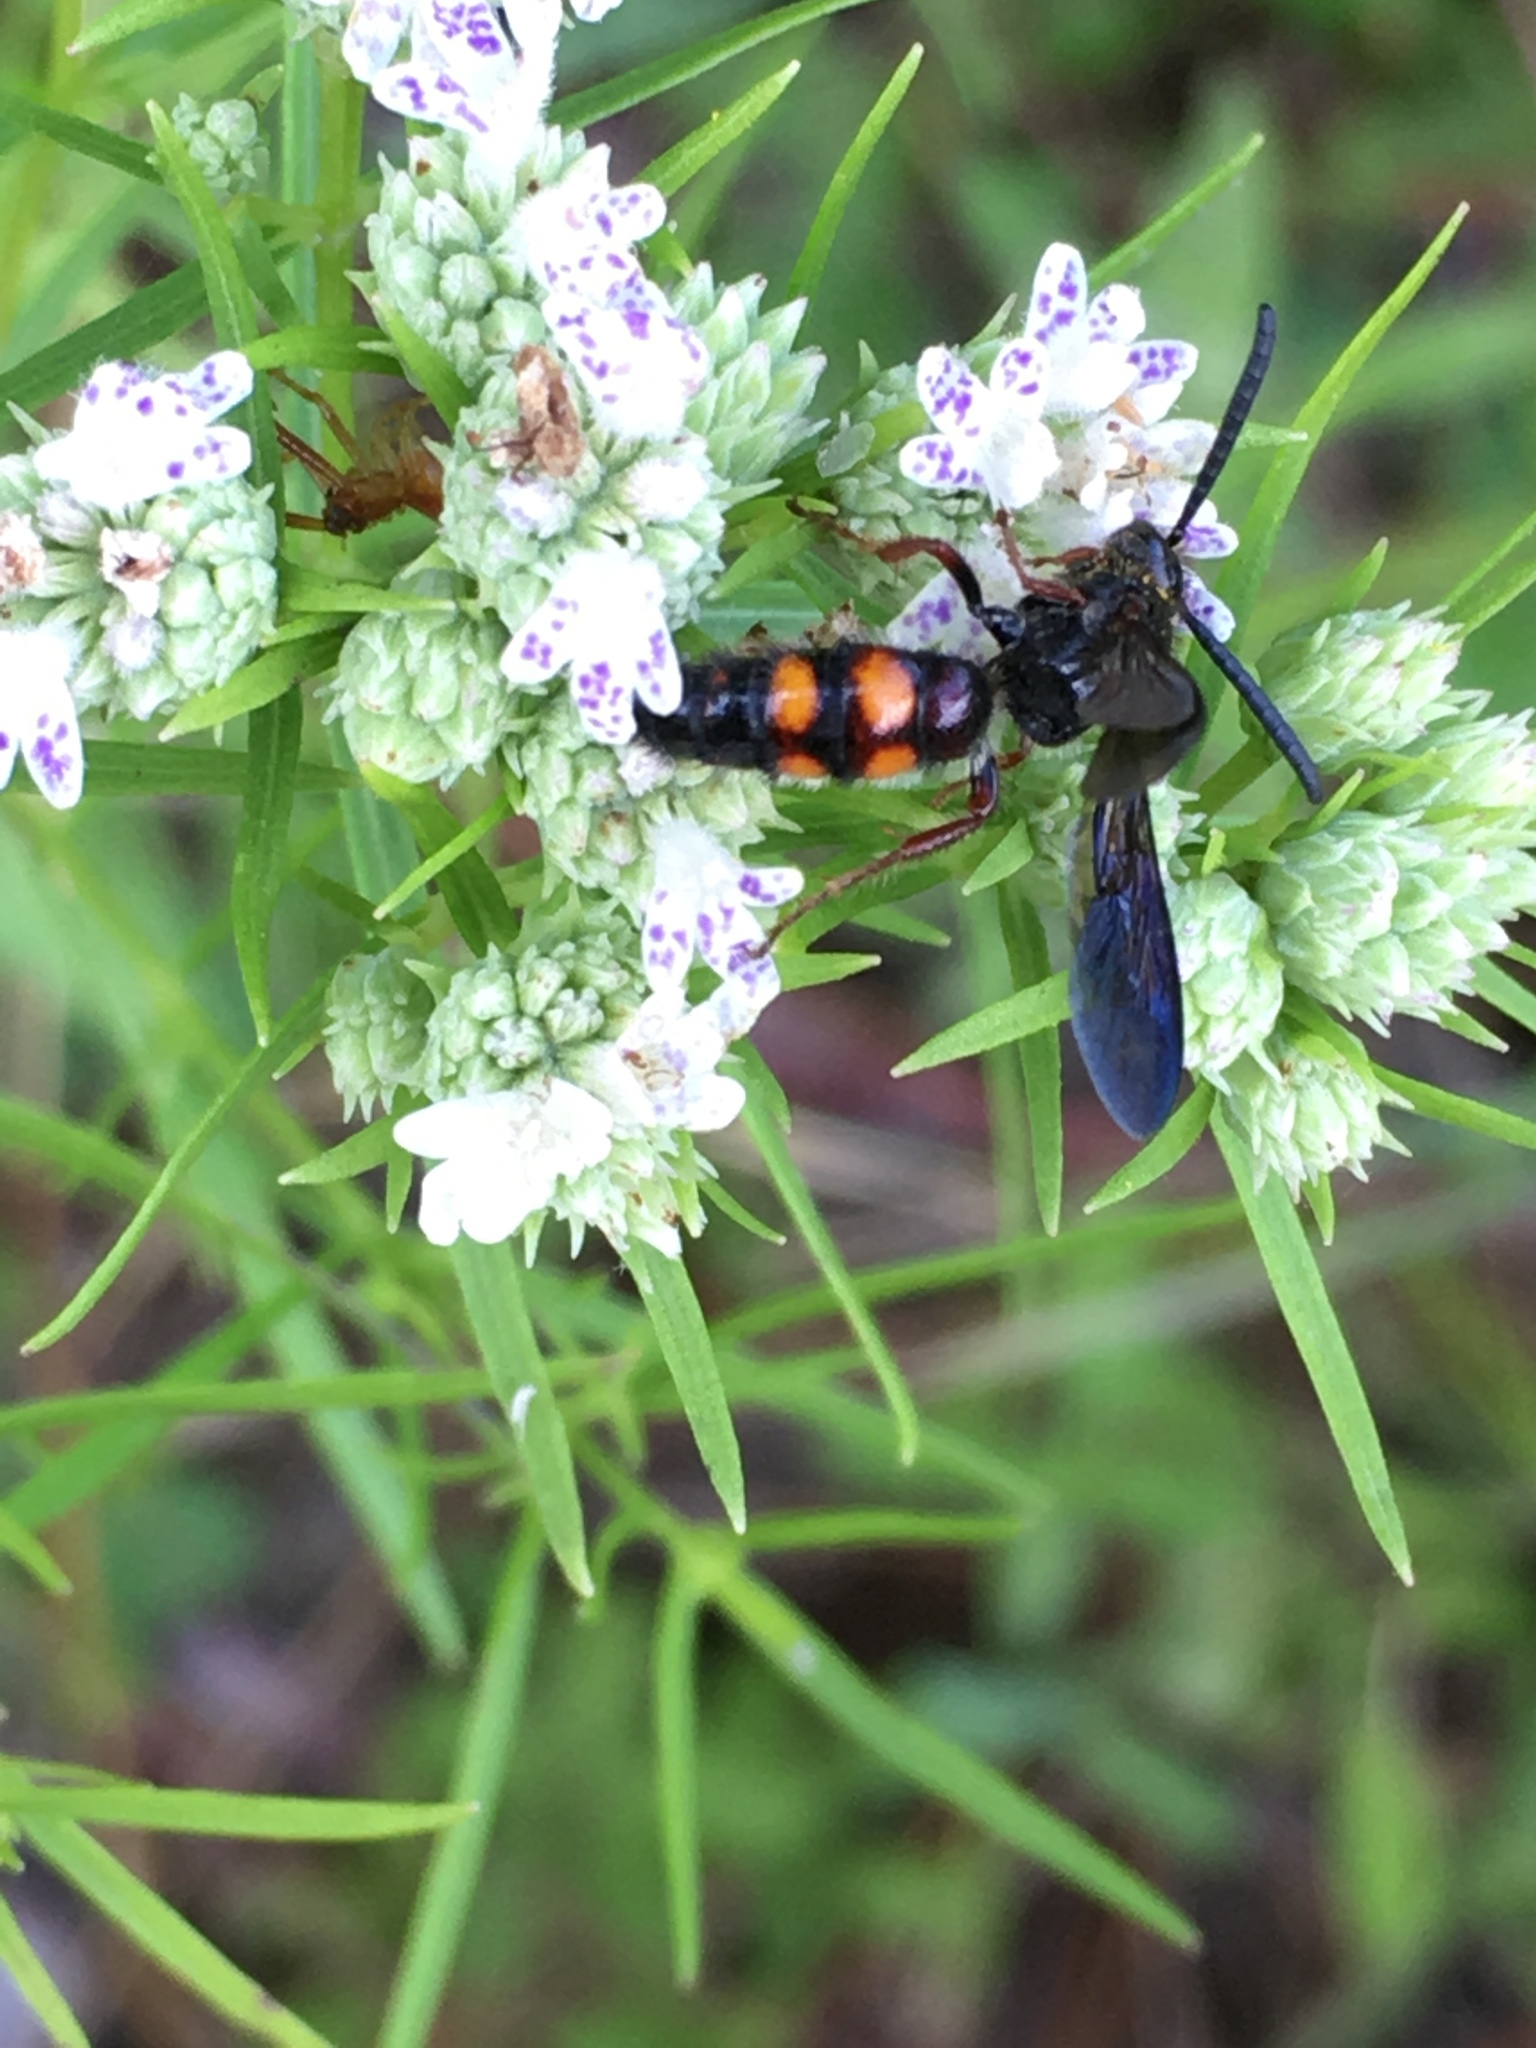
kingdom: Animalia
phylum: Arthropoda
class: Insecta
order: Hymenoptera
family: Scoliidae
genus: Scolia
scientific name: Scolia nobilitata
